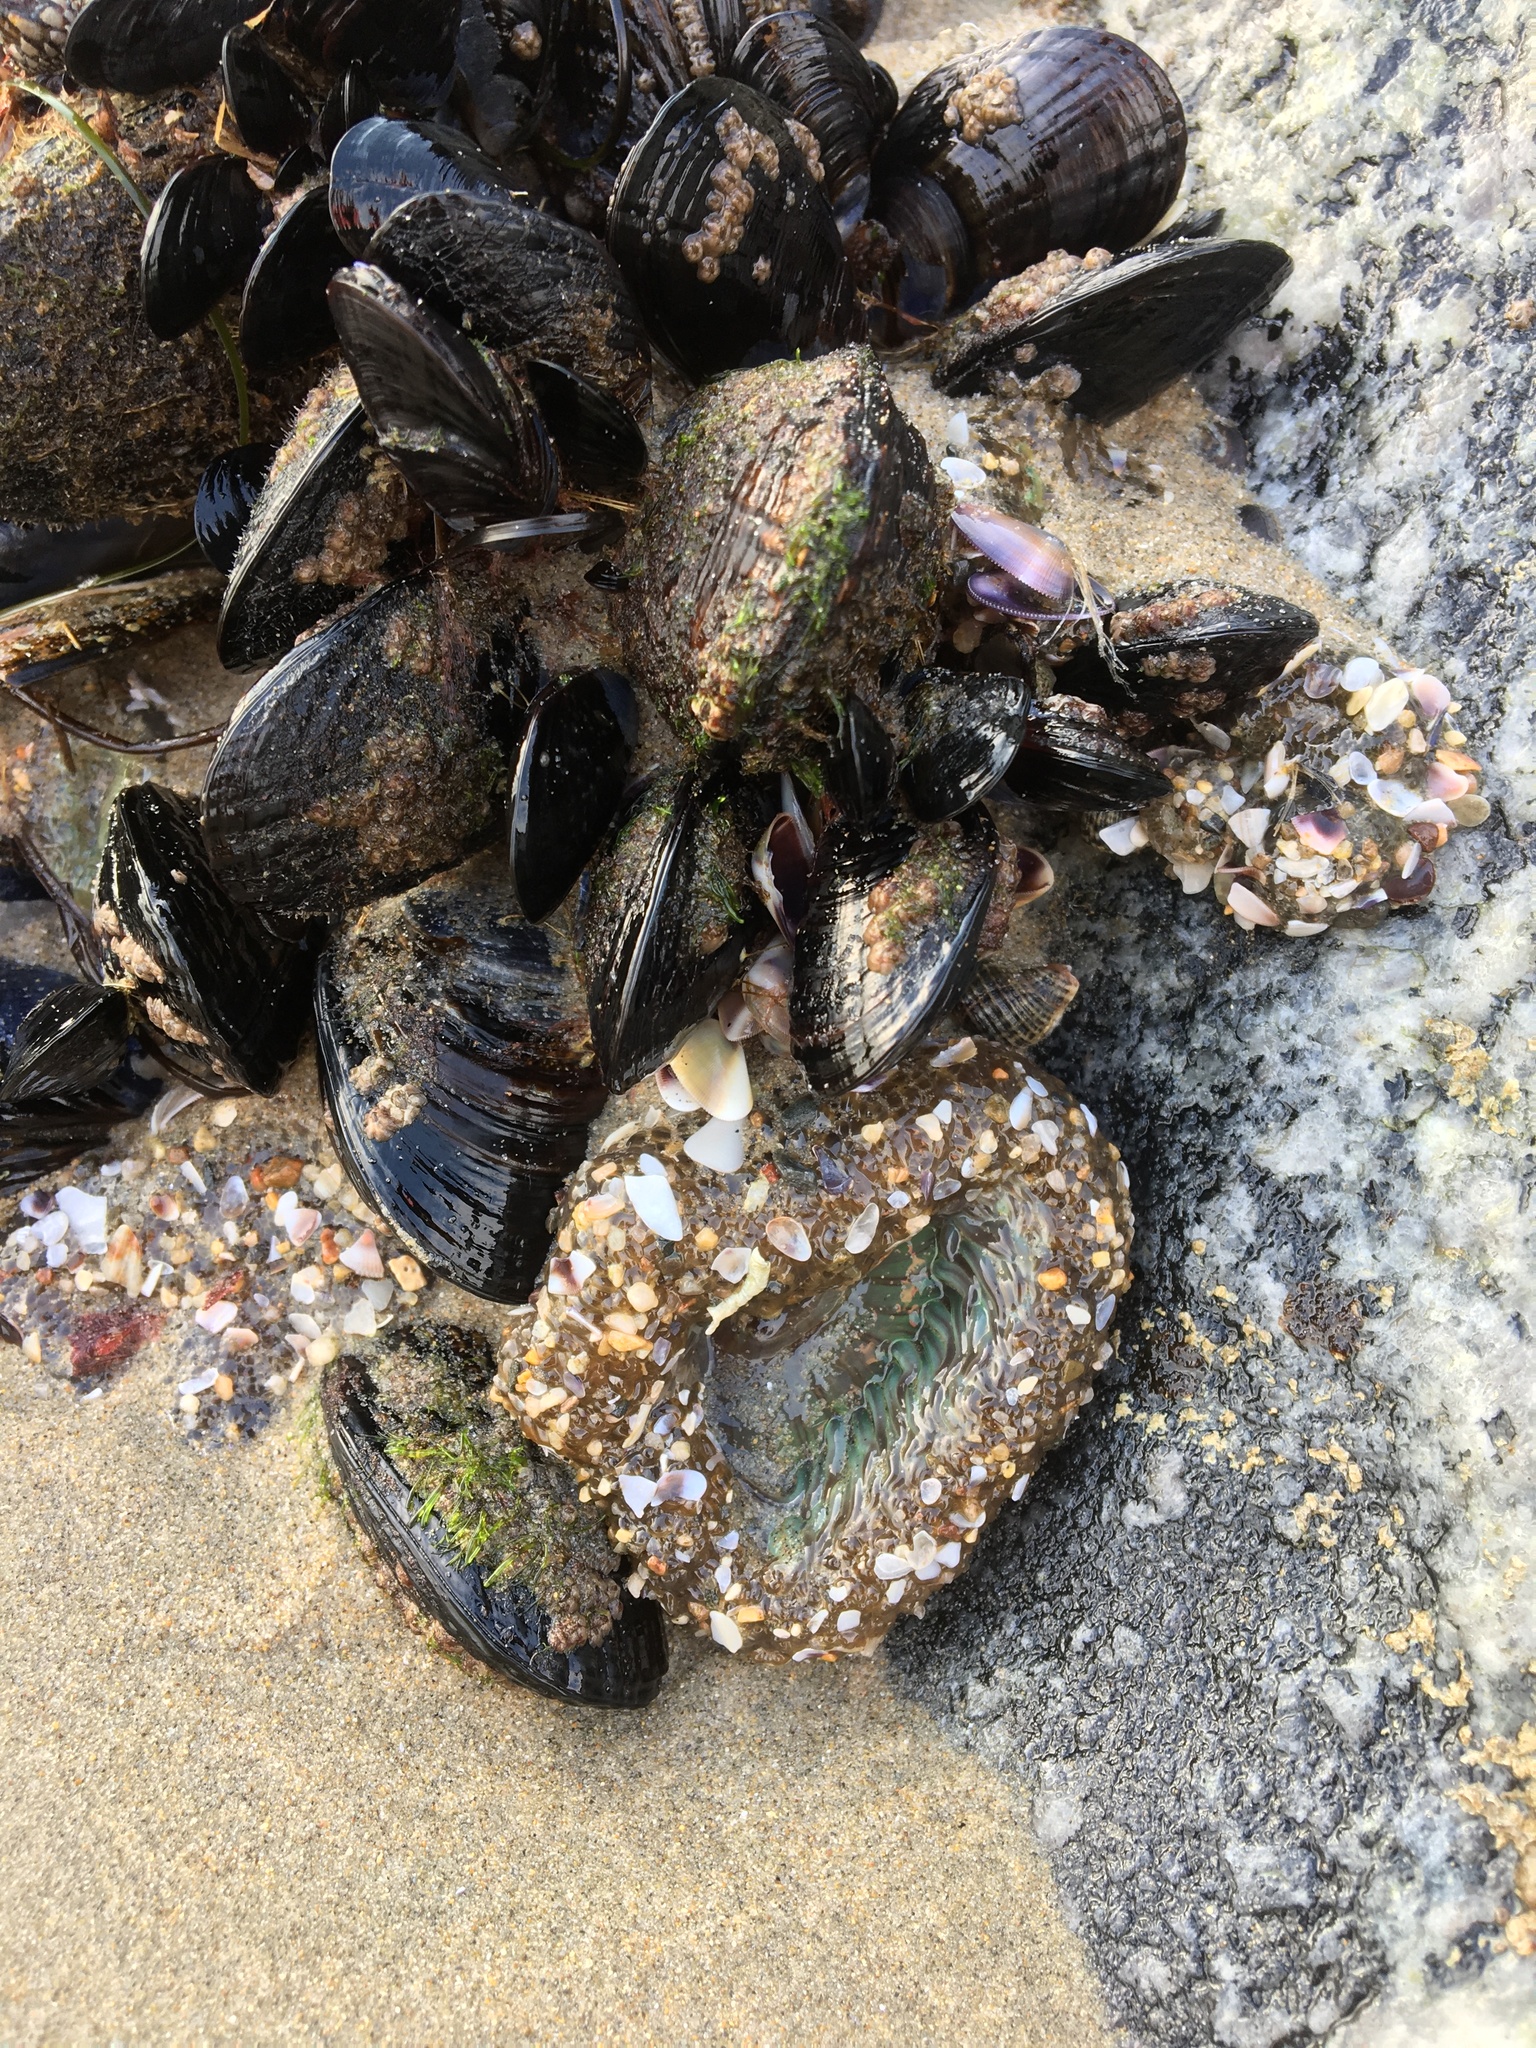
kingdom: Animalia
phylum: Cnidaria
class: Anthozoa
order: Actiniaria
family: Actiniidae
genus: Anthopleura
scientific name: Anthopleura sola
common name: Sun anemone
